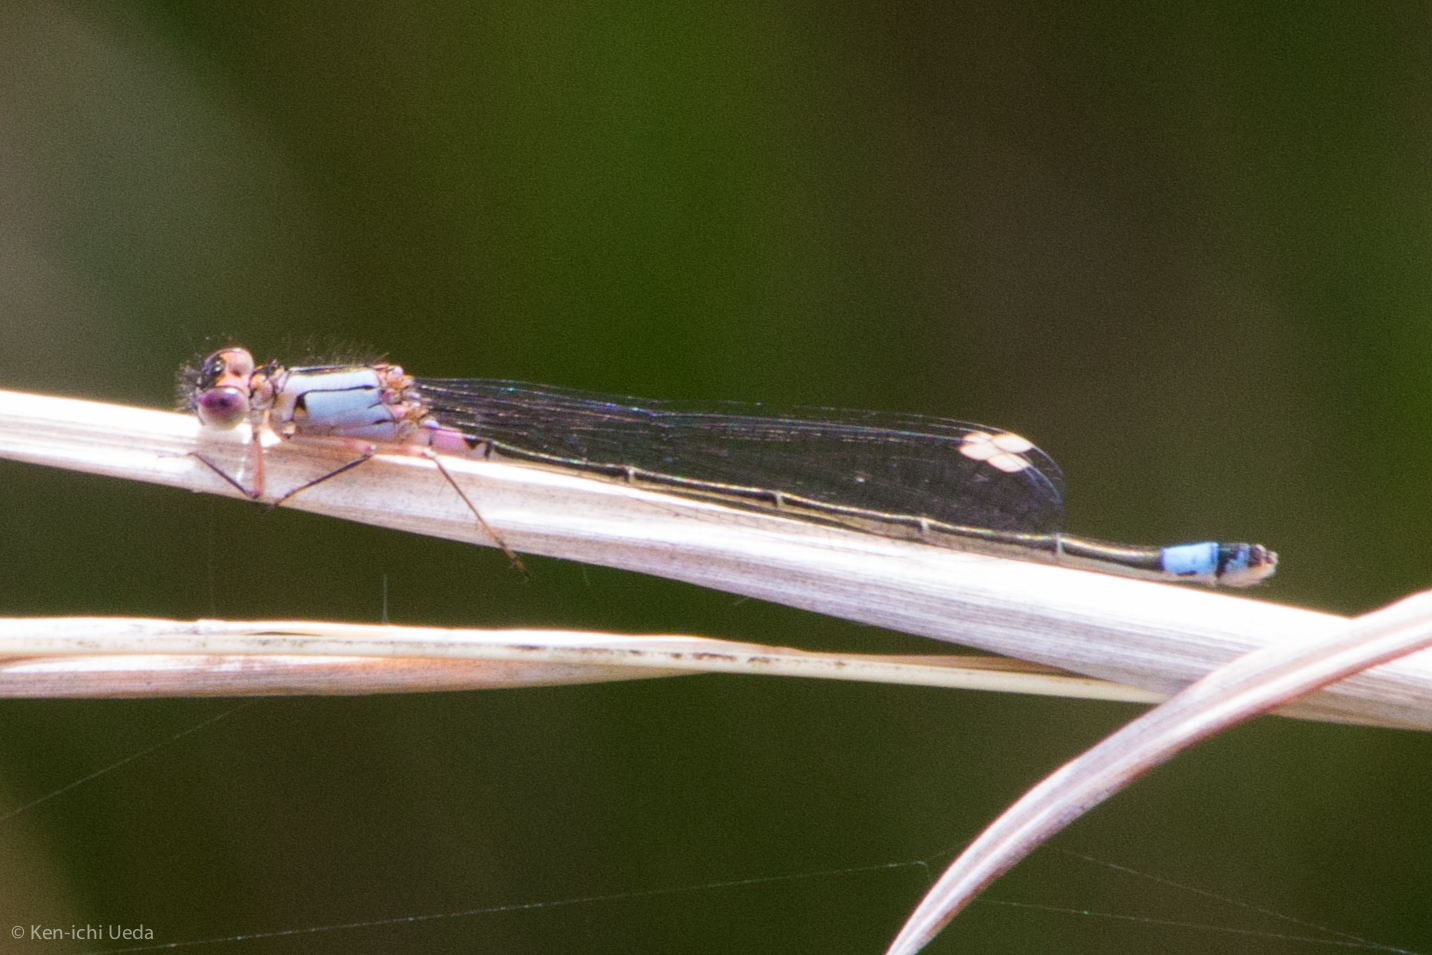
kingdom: Animalia
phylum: Arthropoda
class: Insecta
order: Odonata
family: Coenagrionidae
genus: Ischnura
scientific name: Ischnura cervula
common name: Pacific forktail
